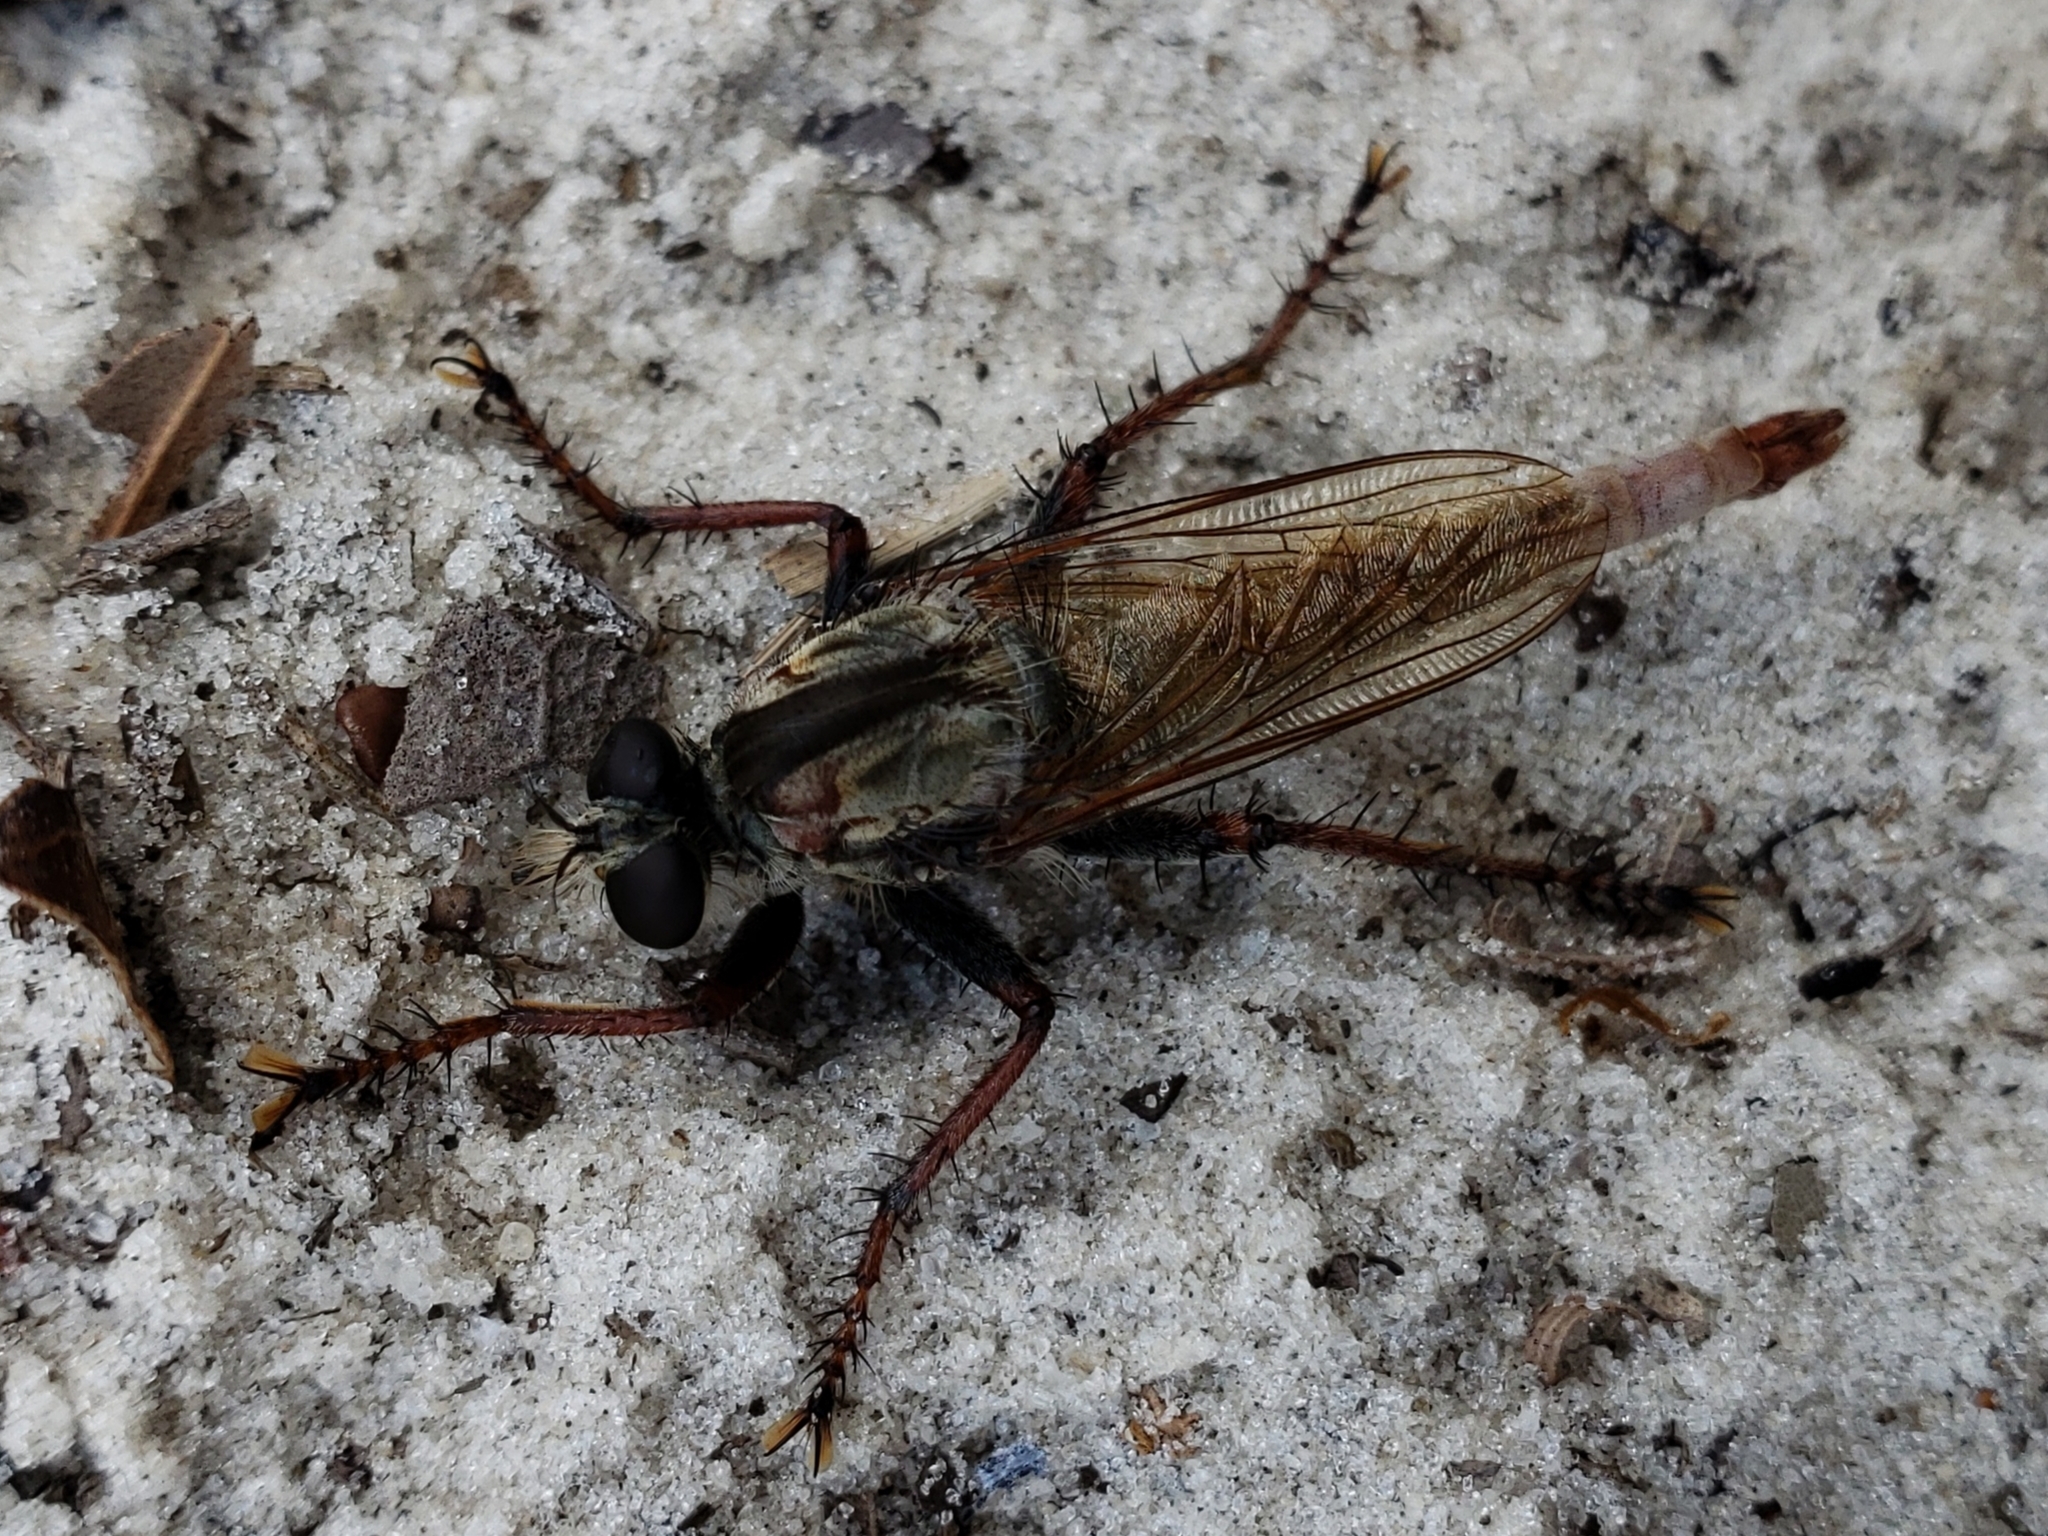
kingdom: Animalia
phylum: Arthropoda
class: Insecta
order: Diptera
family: Asilidae
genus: Proctacanthus
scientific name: Proctacanthus brevipennis
